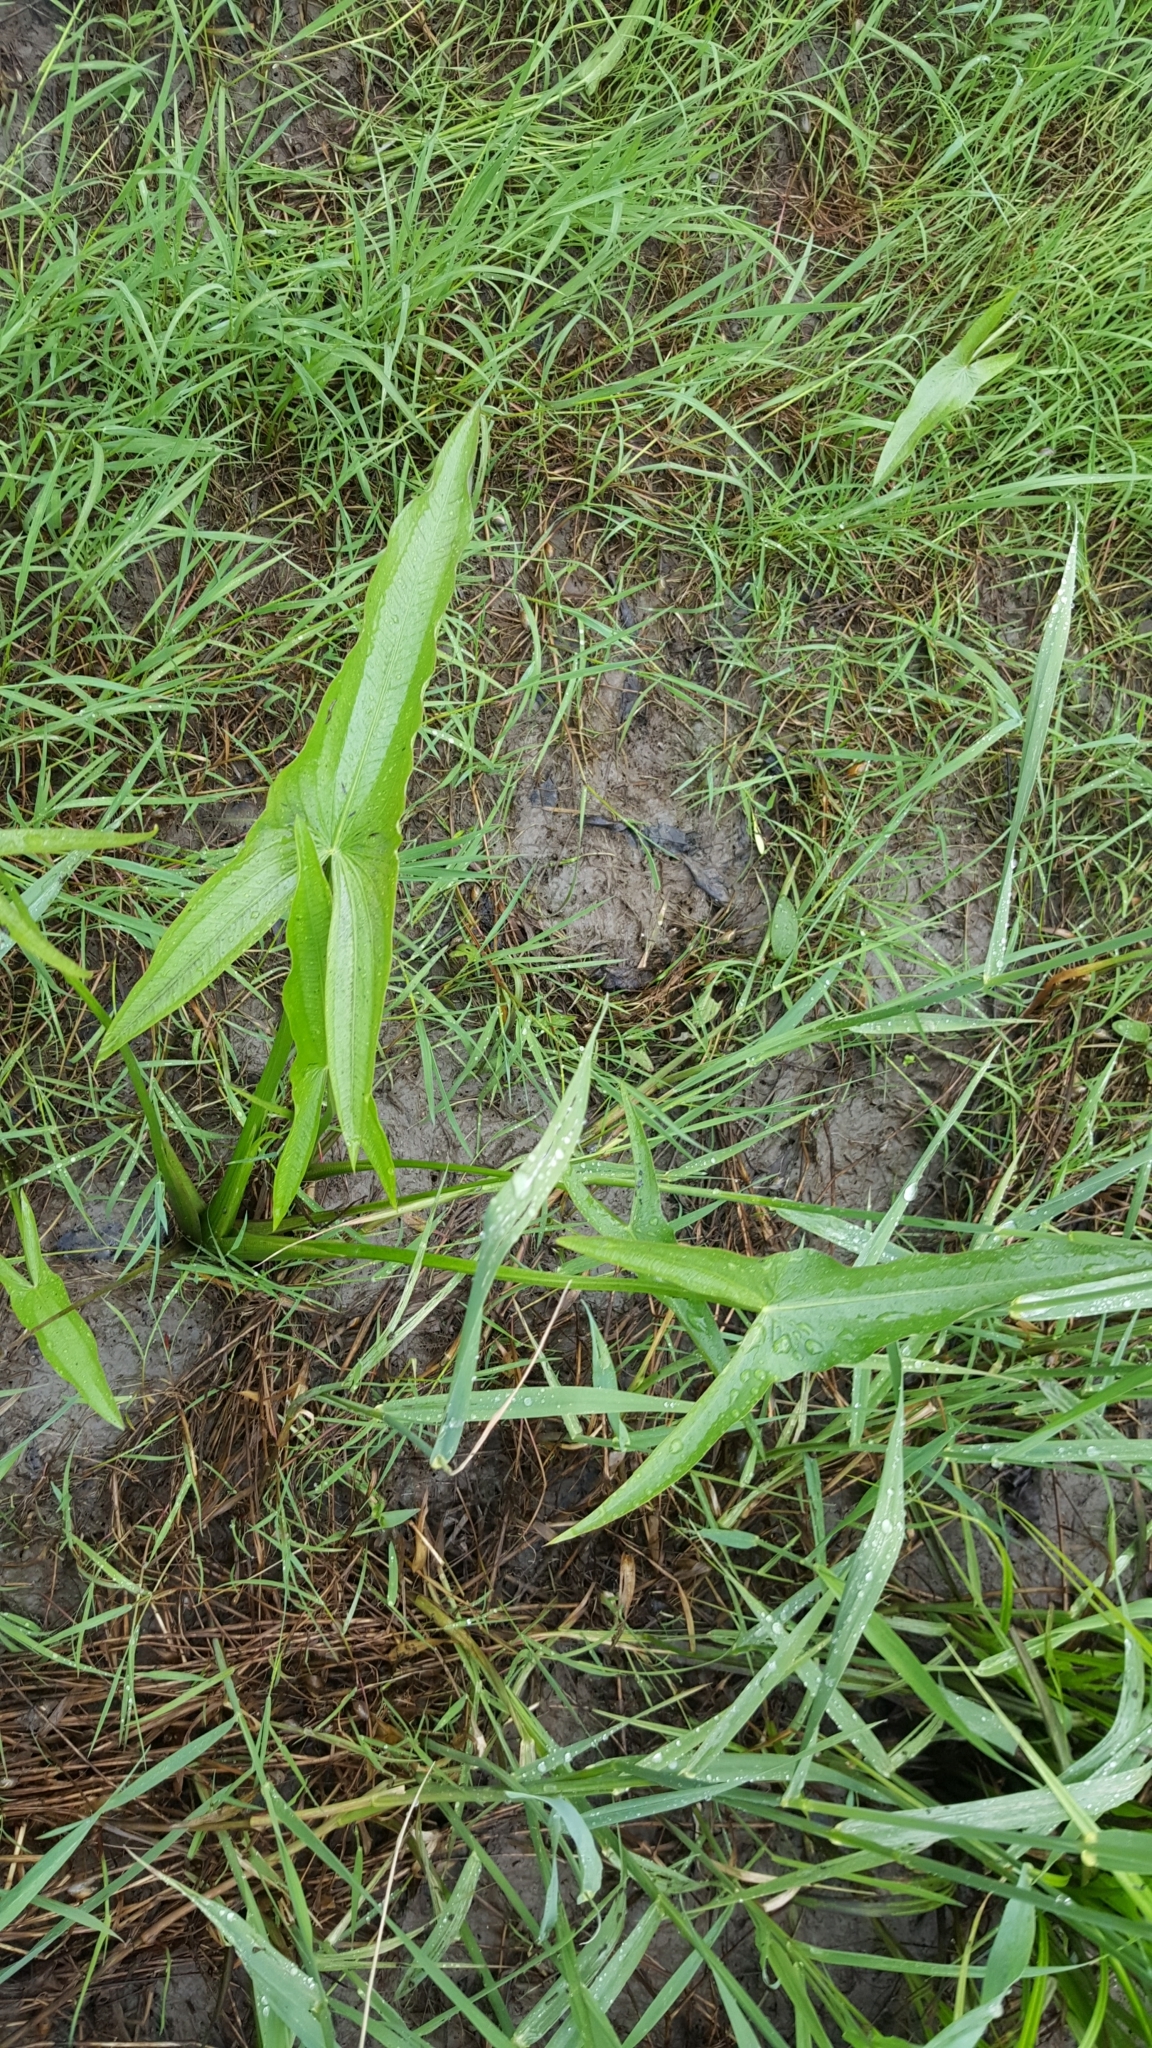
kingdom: Plantae
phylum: Tracheophyta
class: Liliopsida
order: Alismatales
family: Alismataceae
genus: Sagittaria
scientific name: Sagittaria latifolia
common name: Duck-potato
